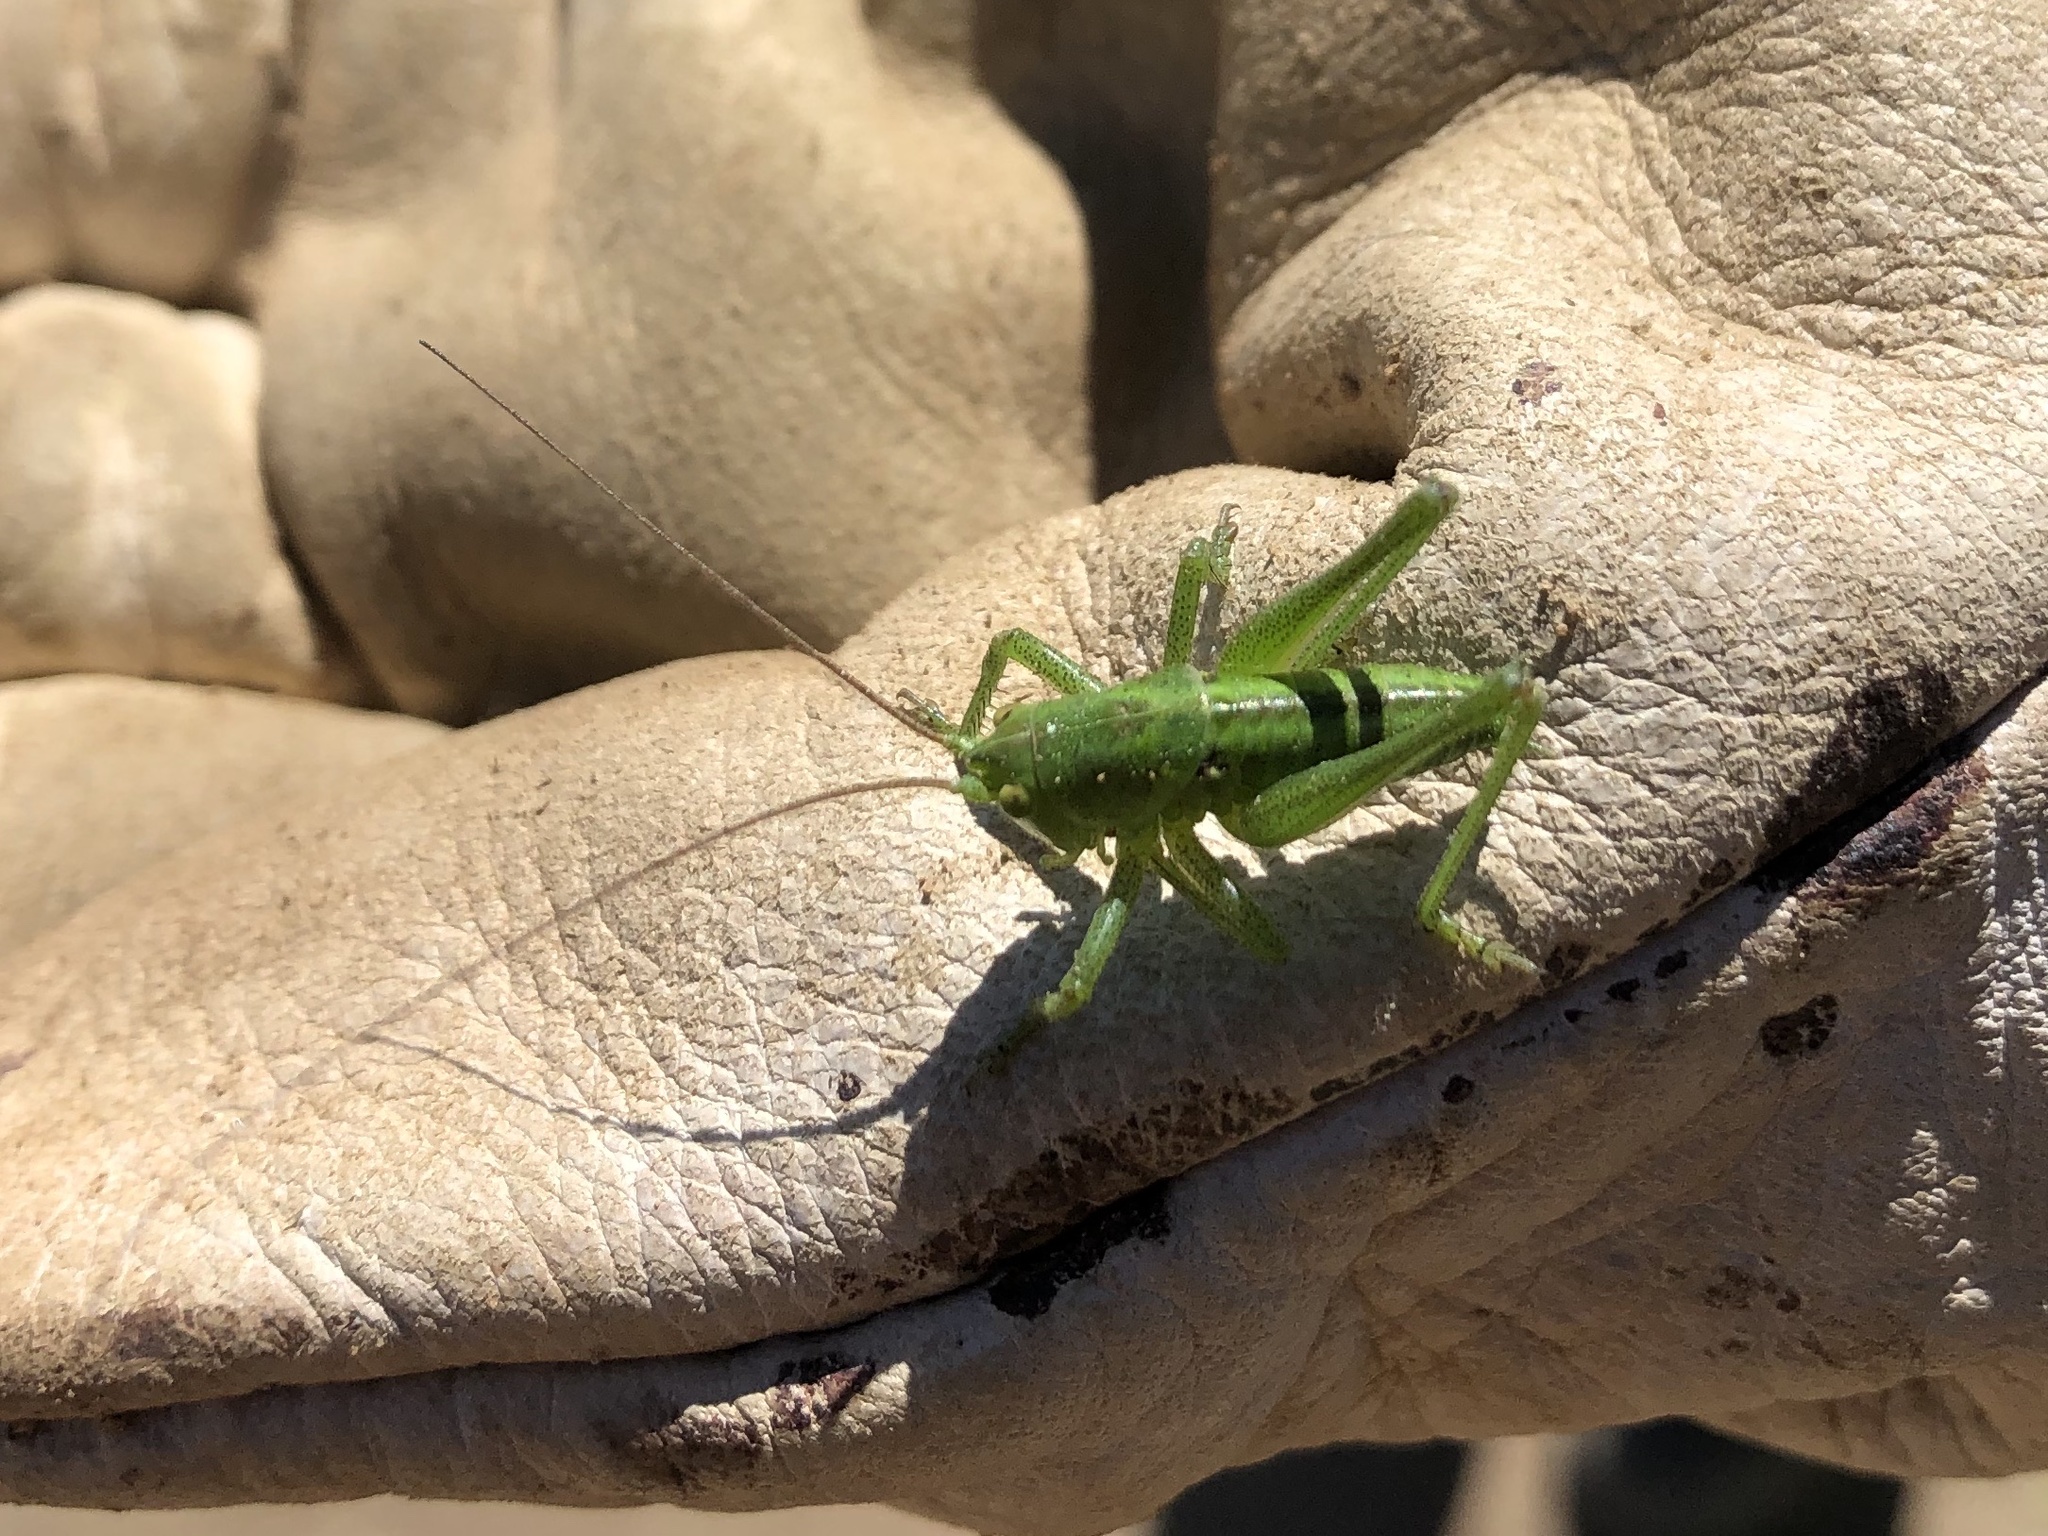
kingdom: Animalia
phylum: Arthropoda
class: Insecta
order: Orthoptera
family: Tettigoniidae
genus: Tettigonia
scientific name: Tettigonia viridissima
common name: Great green bush-cricket
